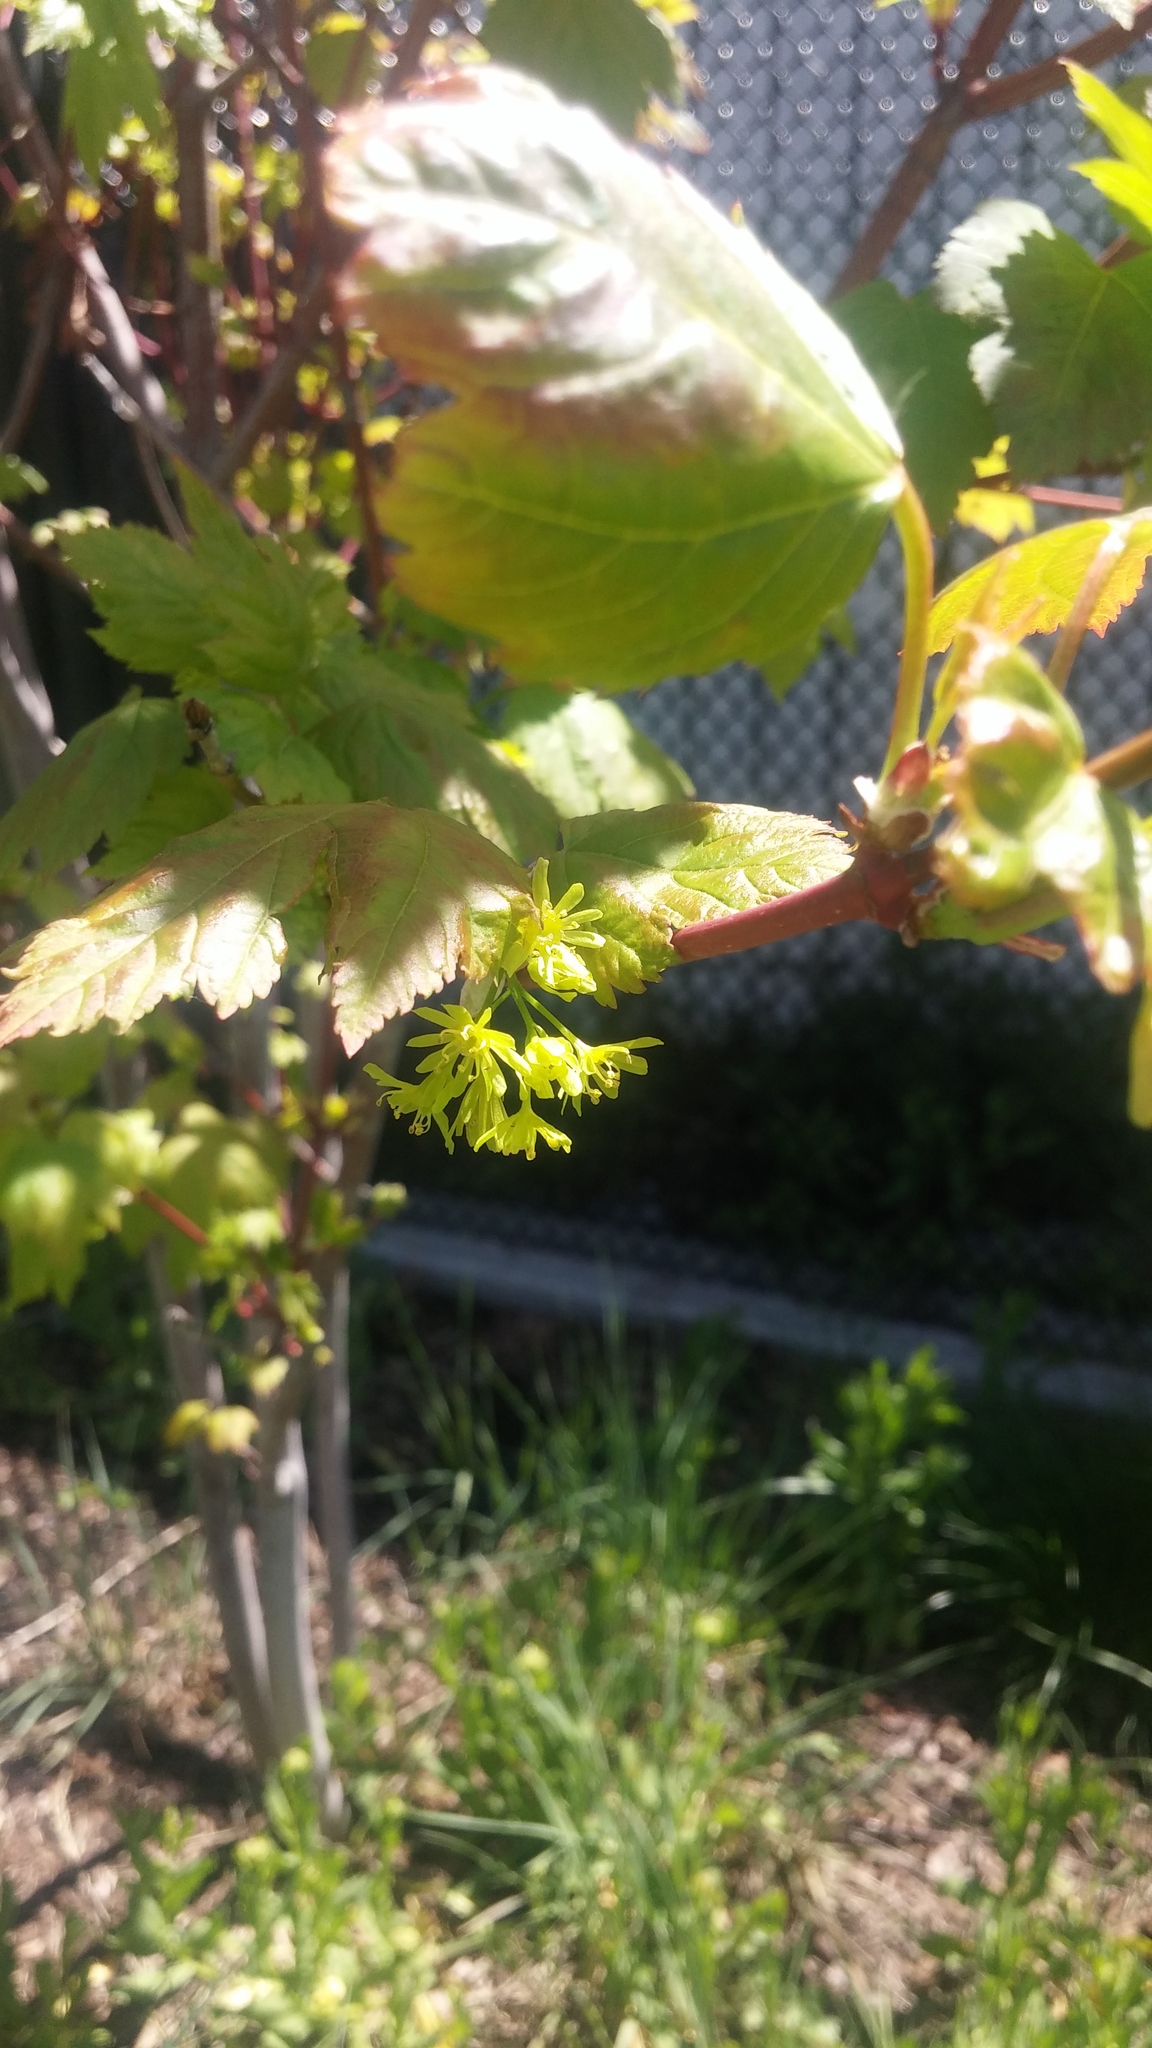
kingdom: Plantae
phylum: Tracheophyta
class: Magnoliopsida
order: Sapindales
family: Sapindaceae
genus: Acer
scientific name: Acer glabrum
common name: Rocky mountain maple
